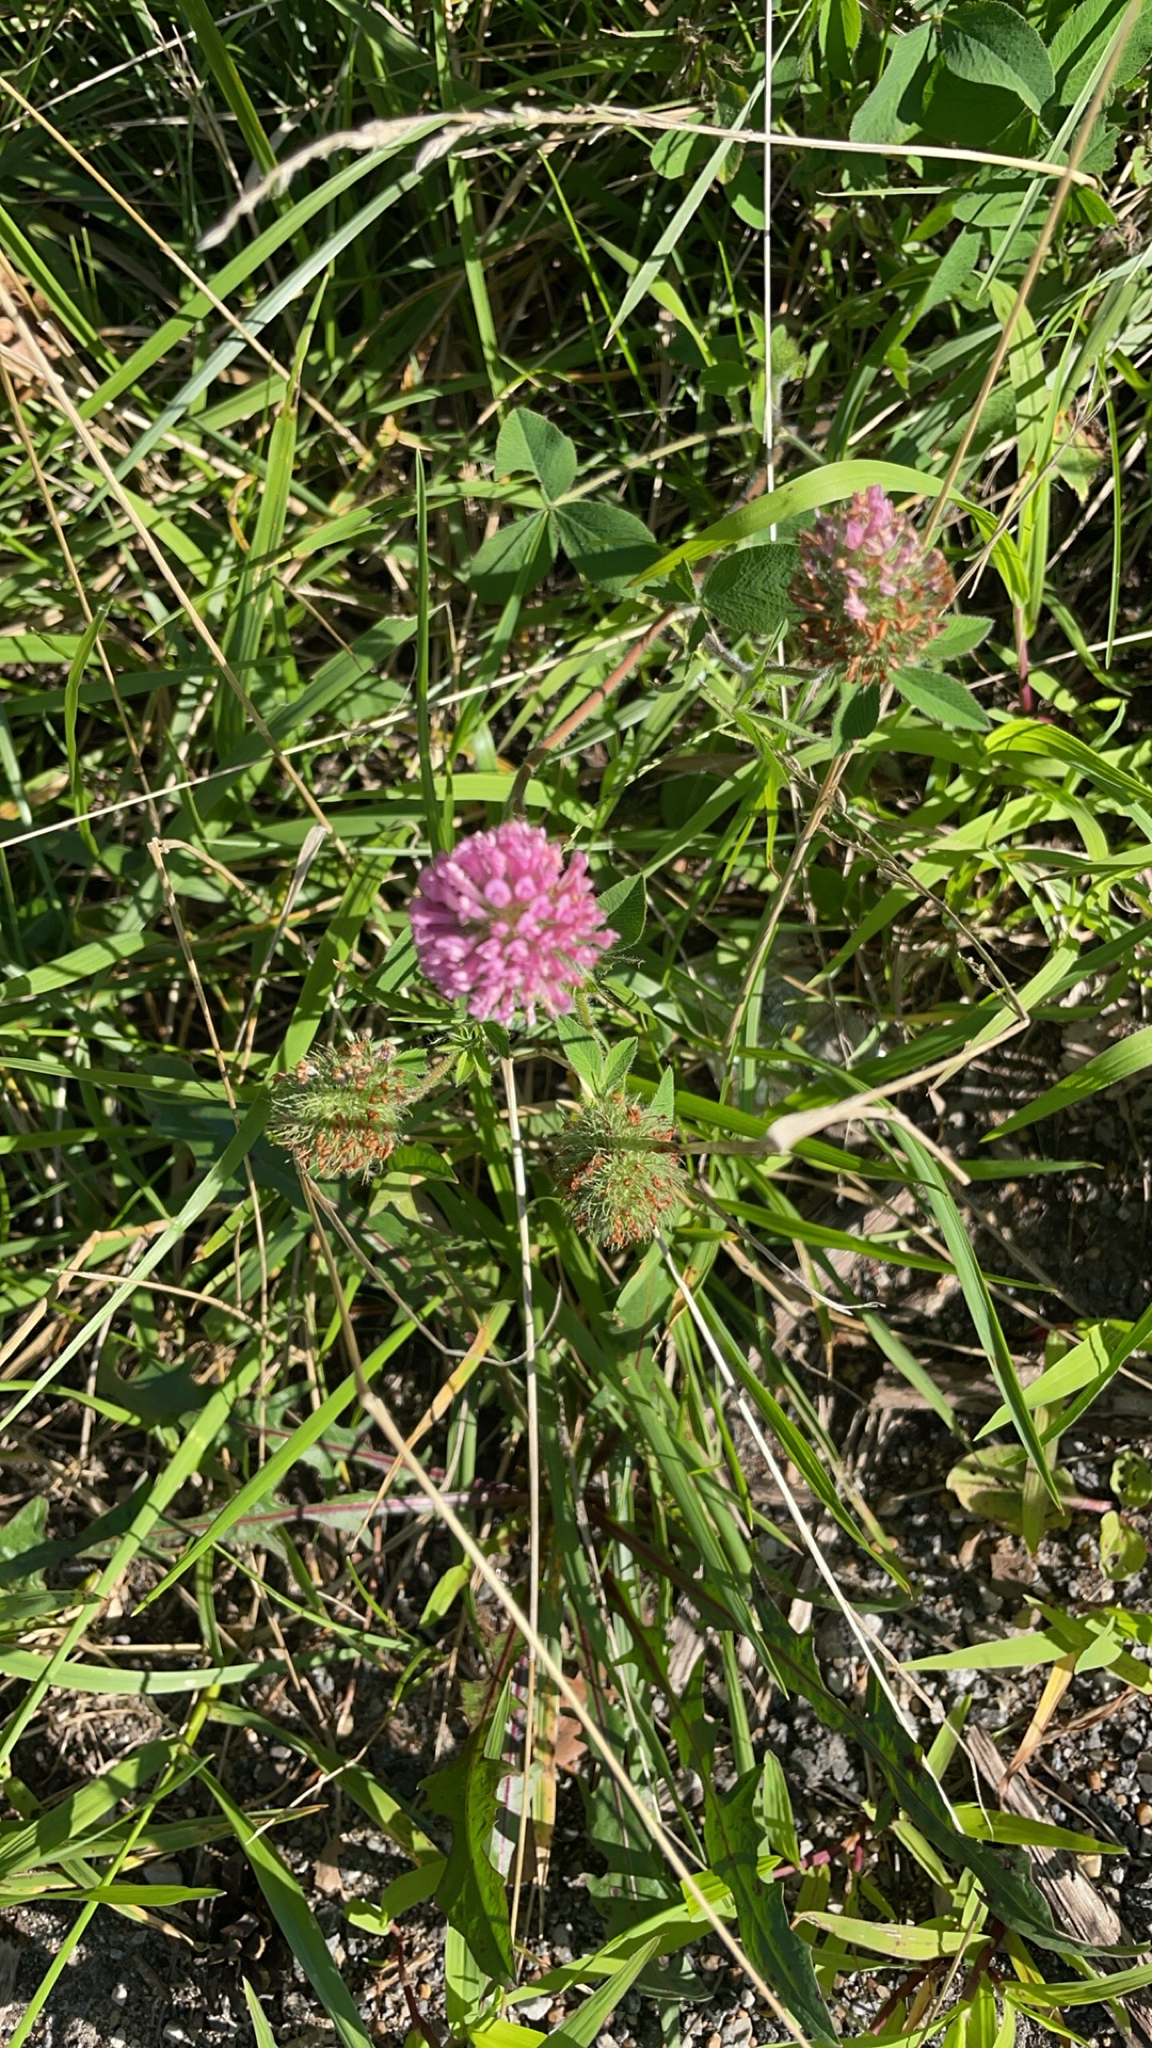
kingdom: Plantae
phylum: Tracheophyta
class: Magnoliopsida
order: Fabales
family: Fabaceae
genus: Trifolium
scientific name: Trifolium pratense
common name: Red clover
